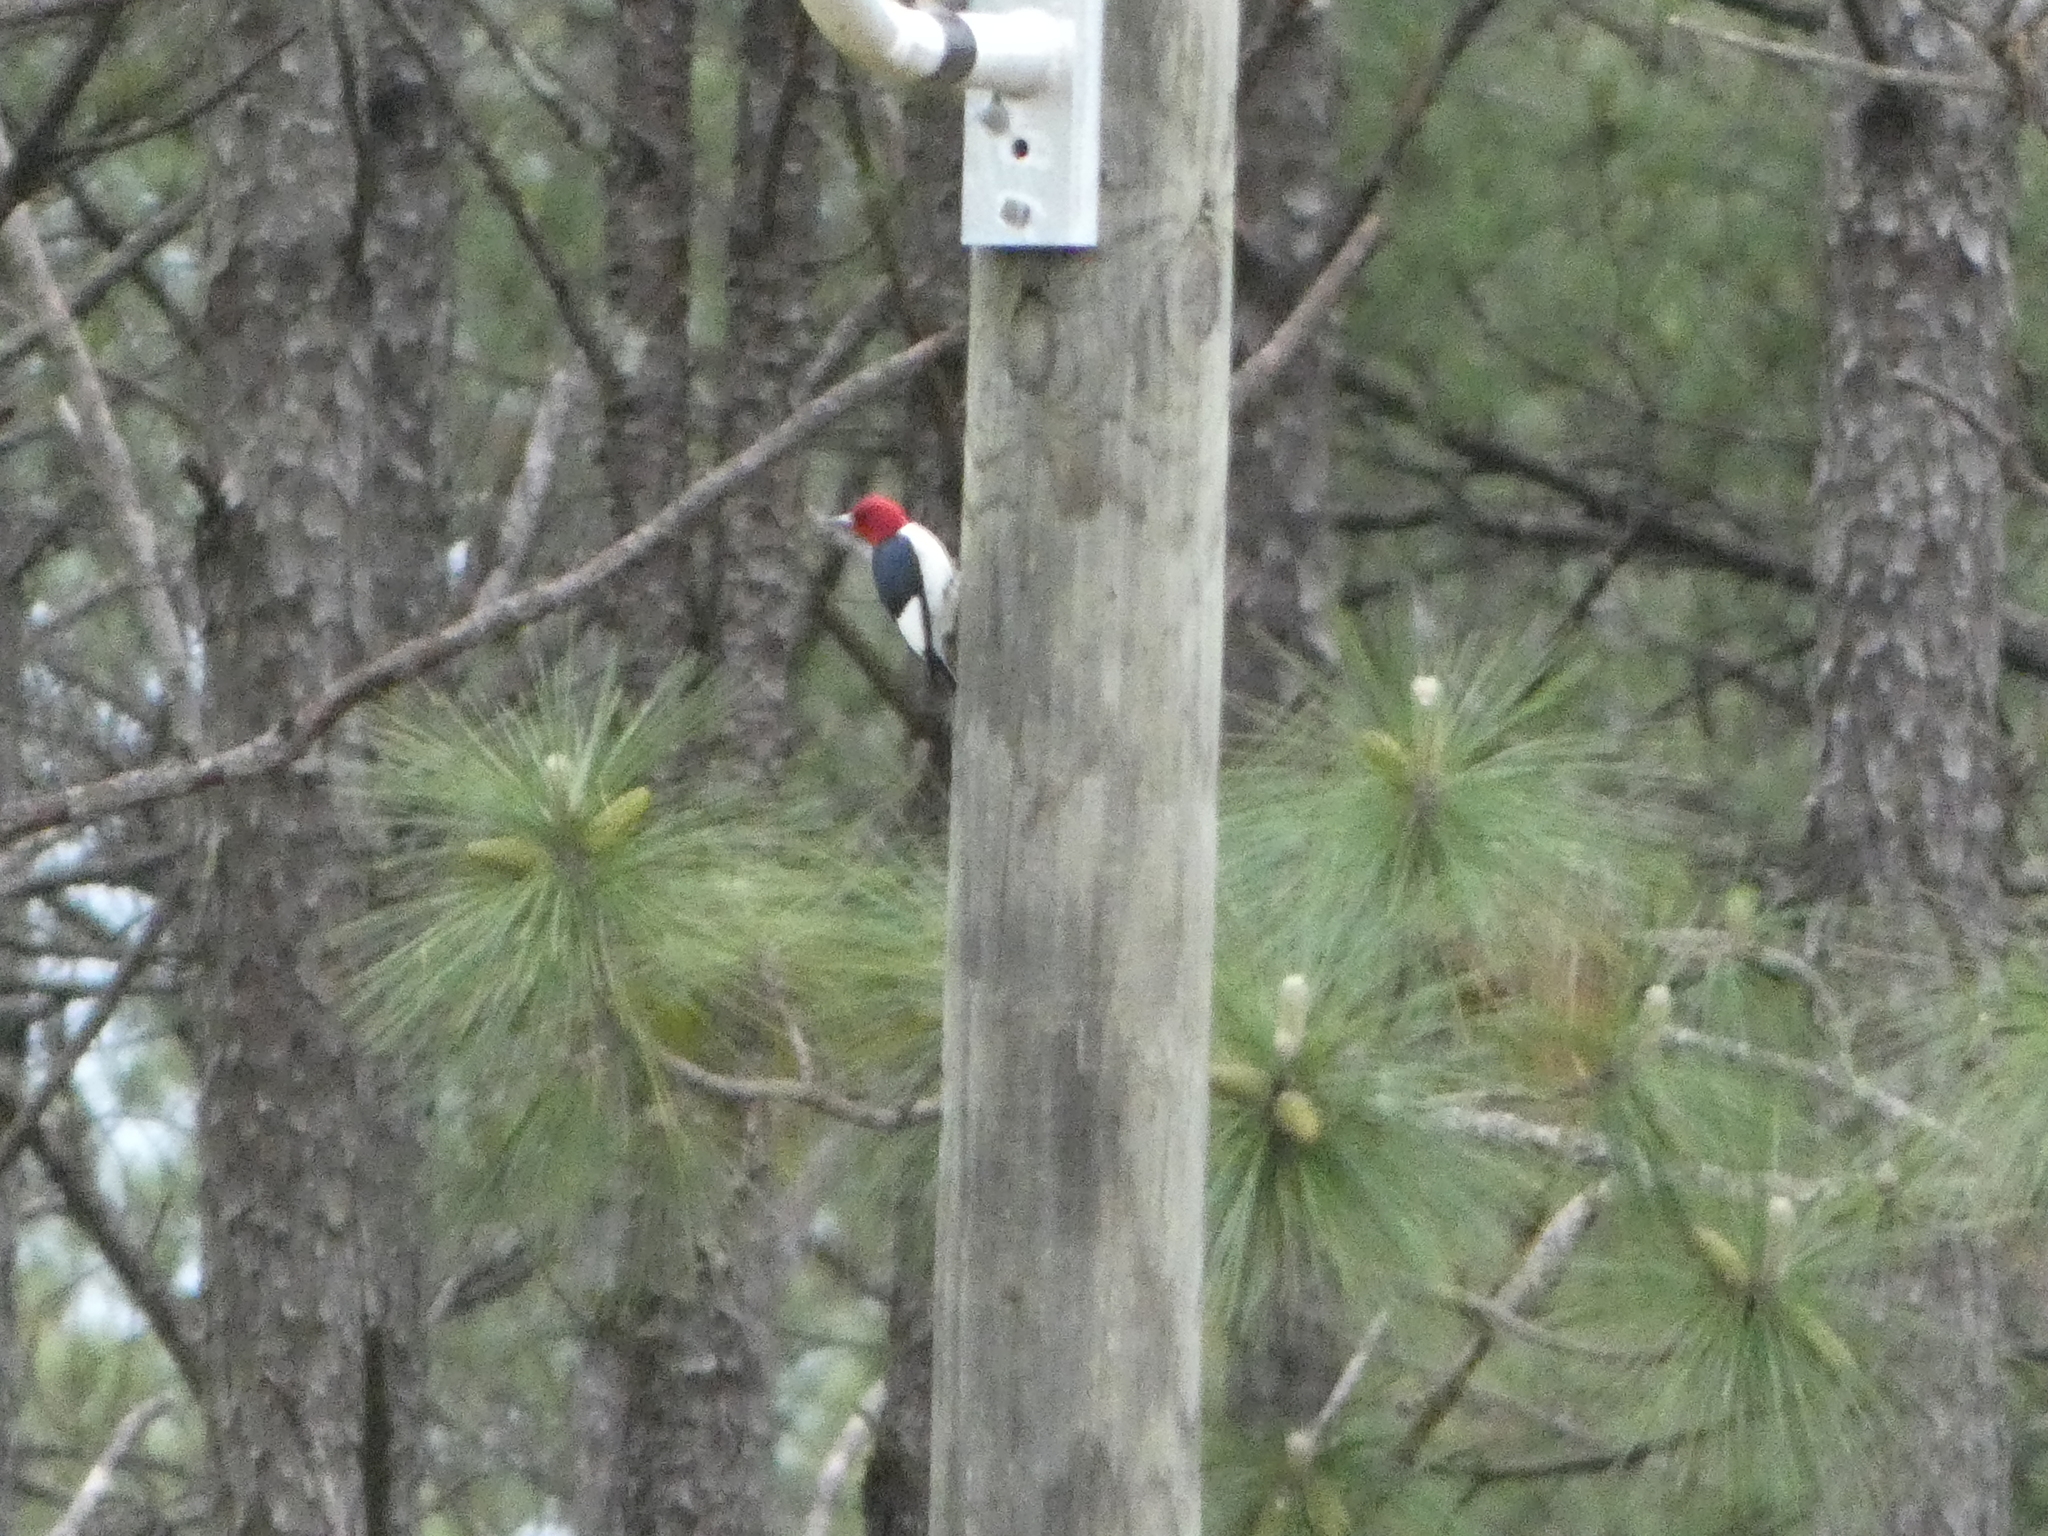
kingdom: Animalia
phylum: Chordata
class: Aves
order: Piciformes
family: Picidae
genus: Melanerpes
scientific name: Melanerpes erythrocephalus
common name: Red-headed woodpecker
